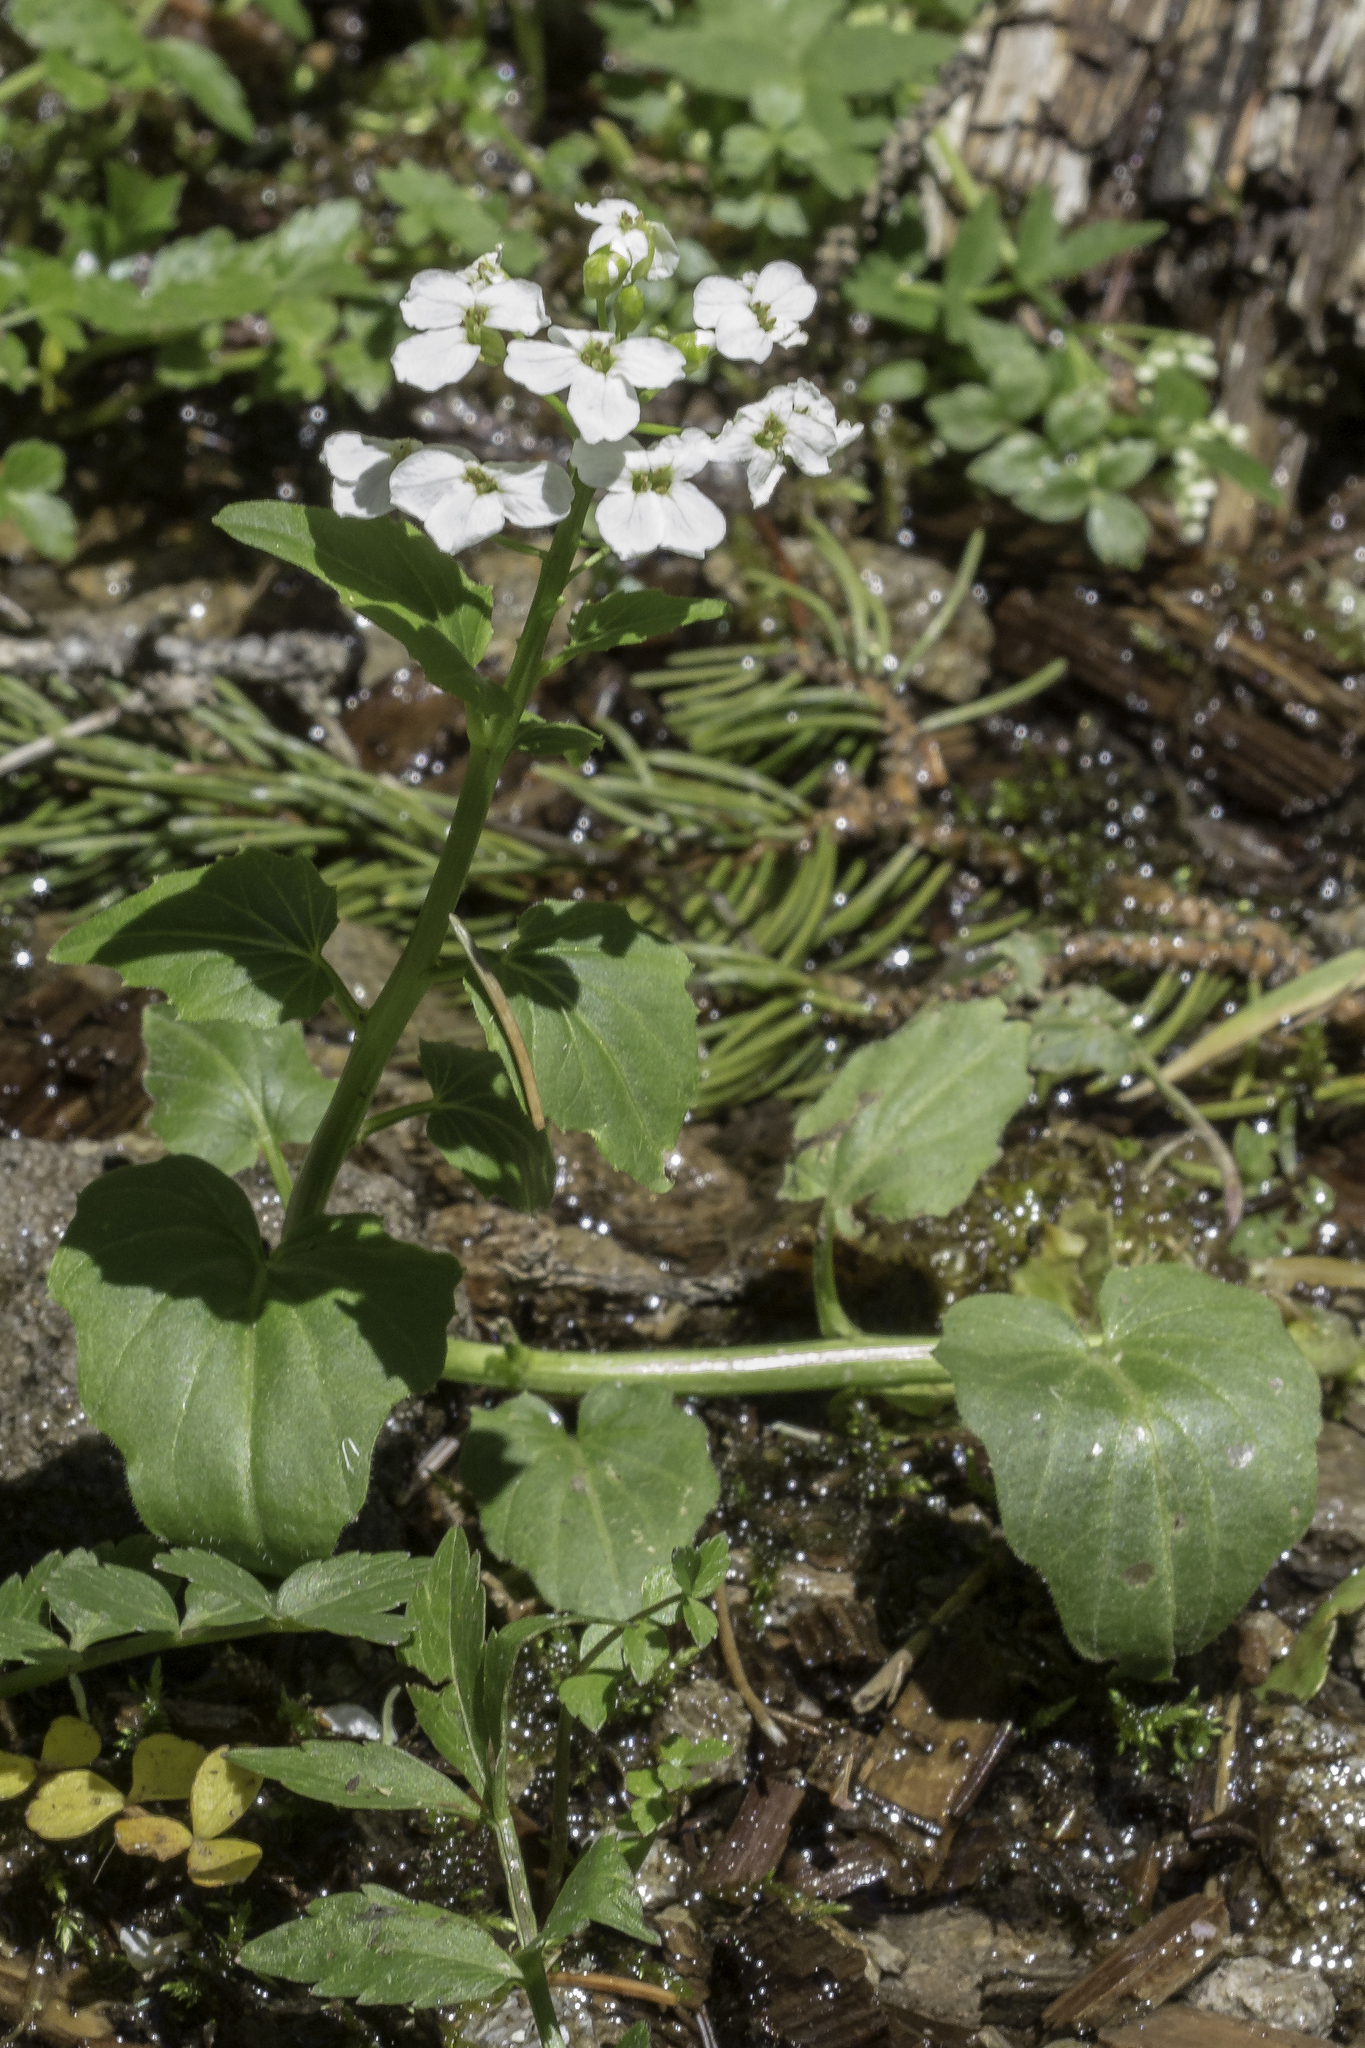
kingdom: Plantae
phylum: Tracheophyta
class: Magnoliopsida
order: Brassicales
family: Brassicaceae
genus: Cardamine
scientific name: Cardamine cordifolia
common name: Heart-leaf bittercress
